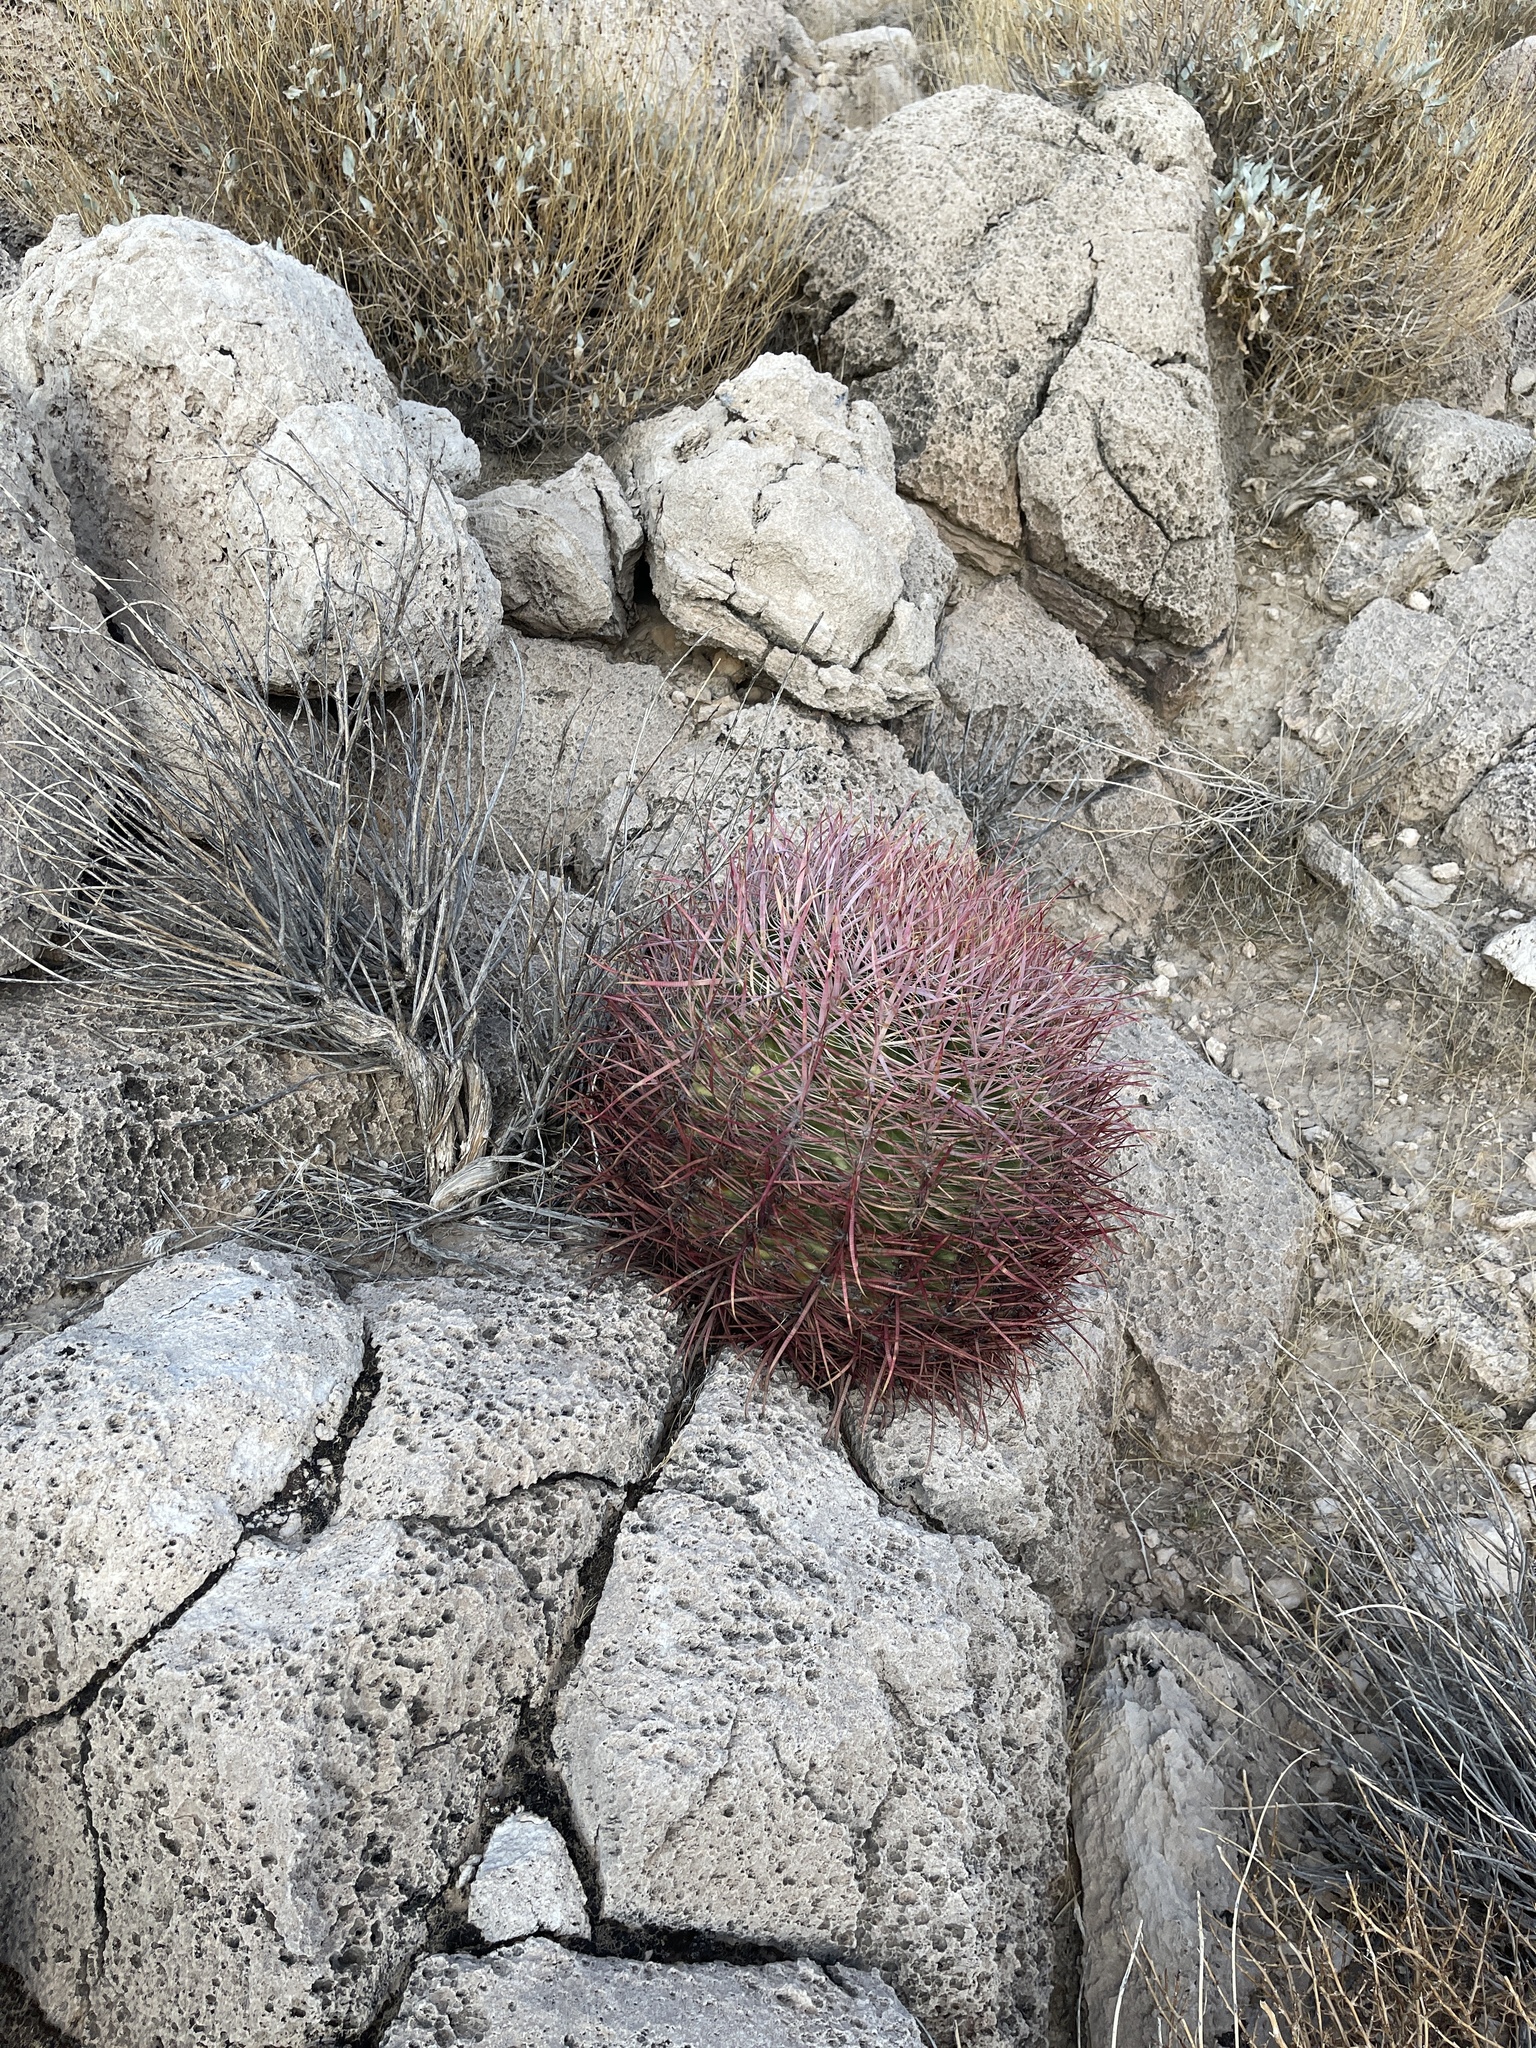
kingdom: Plantae
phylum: Tracheophyta
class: Magnoliopsida
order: Caryophyllales
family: Cactaceae
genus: Ferocactus
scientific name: Ferocactus cylindraceus
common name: California barrel cactus
